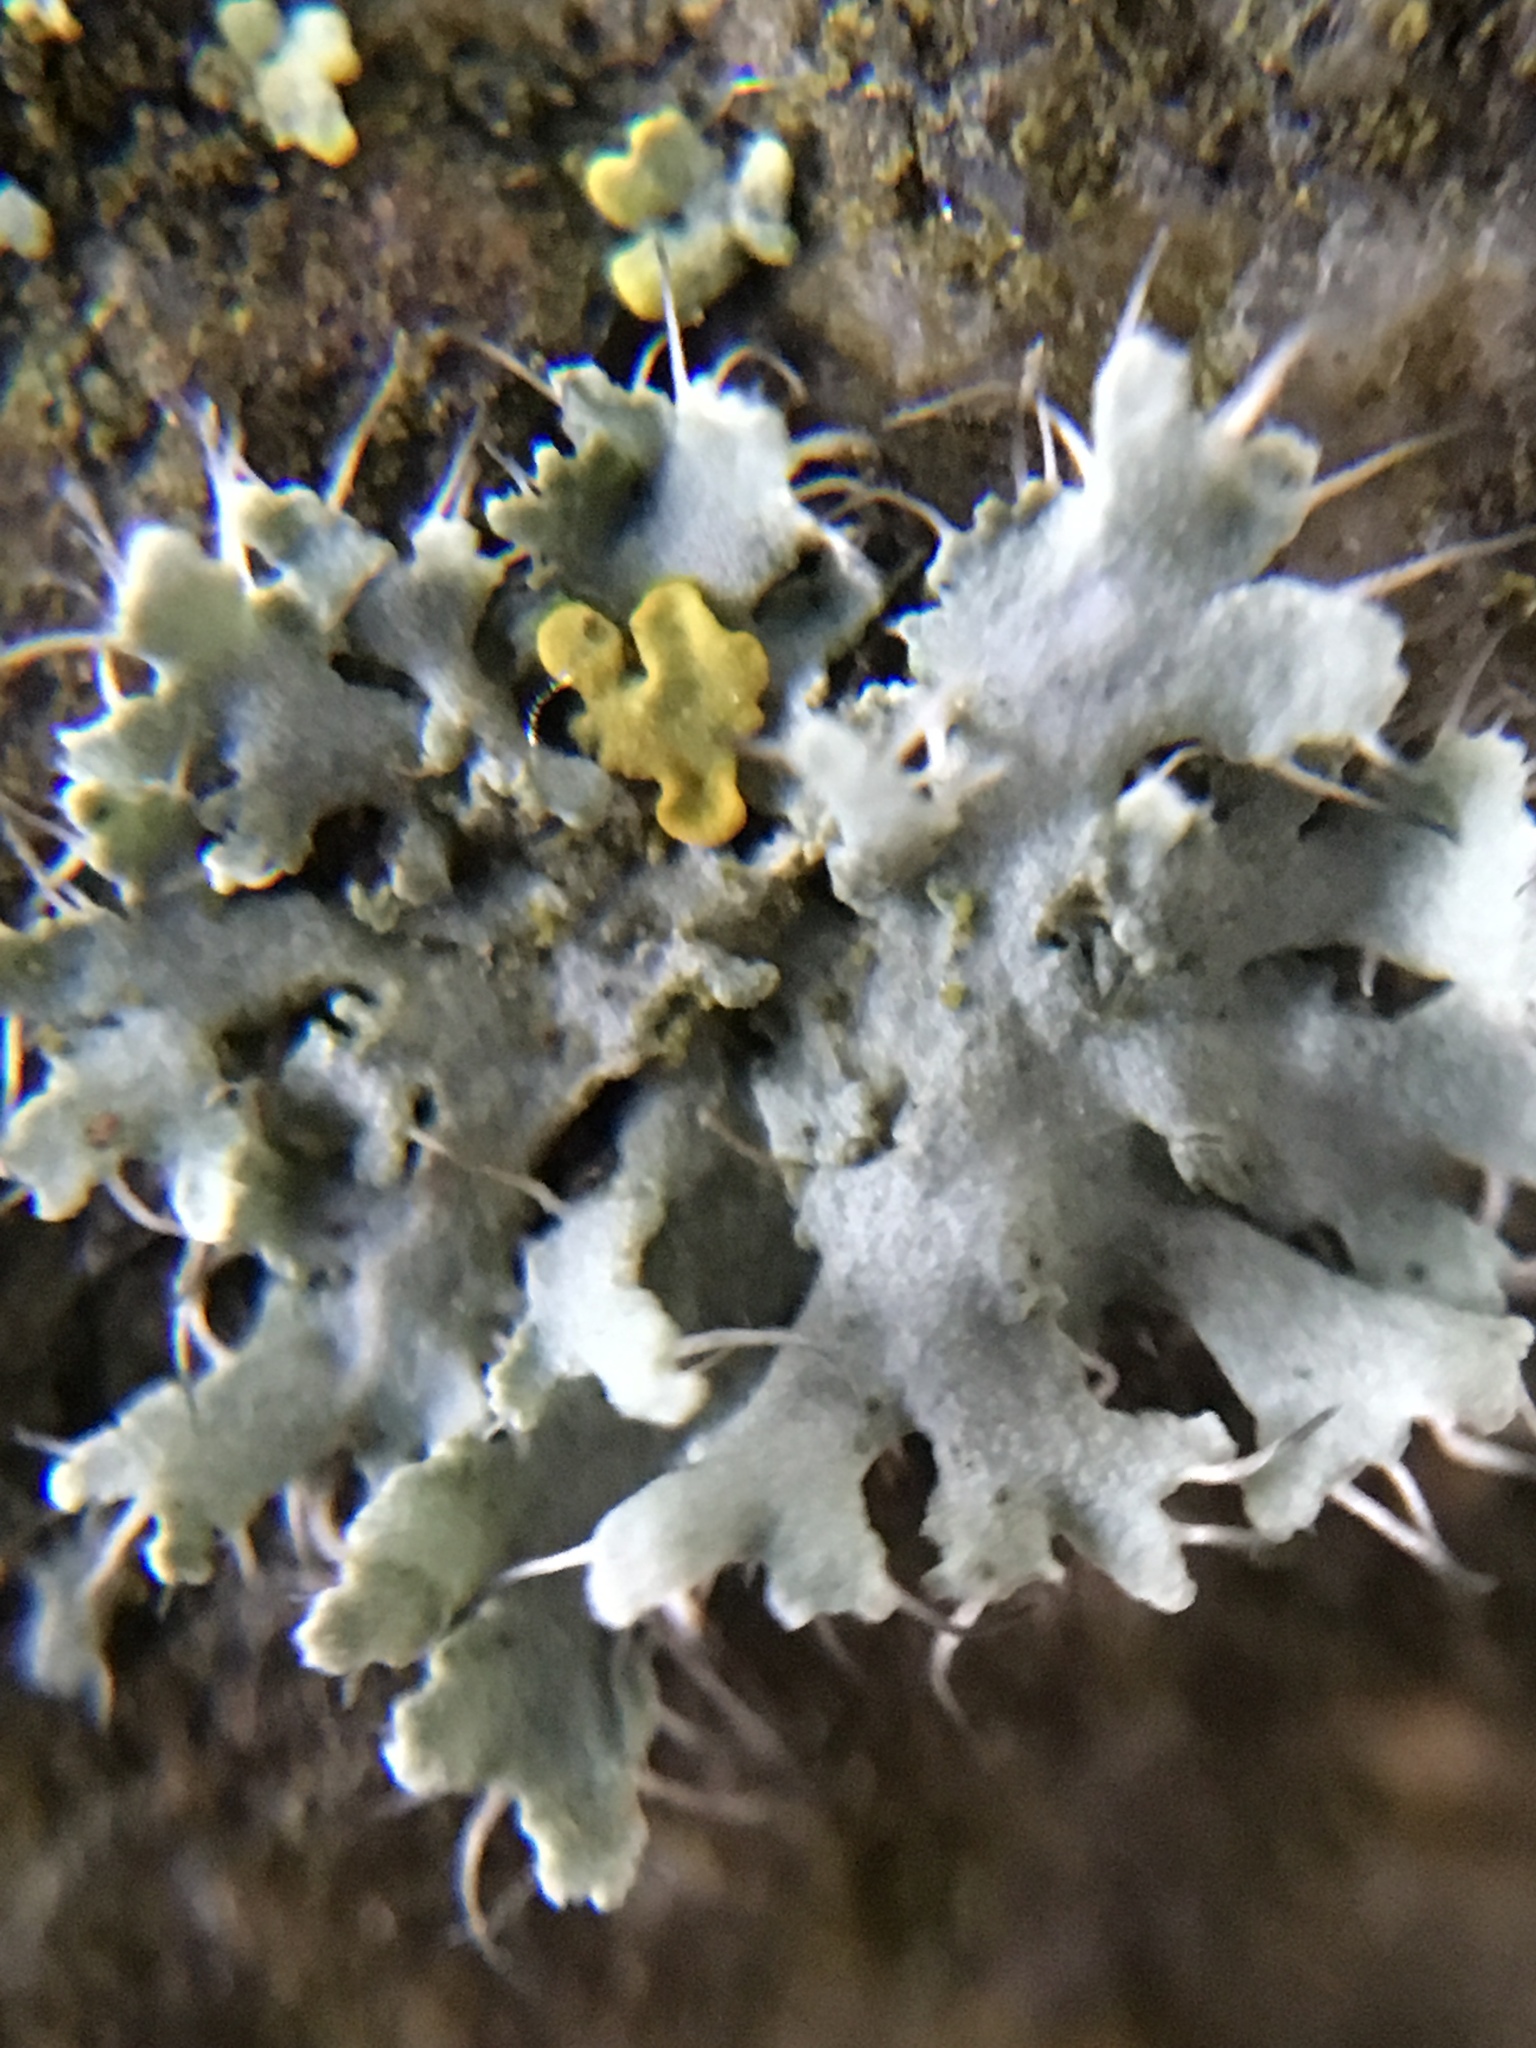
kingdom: Fungi
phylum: Ascomycota
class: Lecanoromycetes
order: Caliciales
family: Physciaceae
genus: Physcia
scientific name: Physcia adscendens
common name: Hooded rosette lichen
